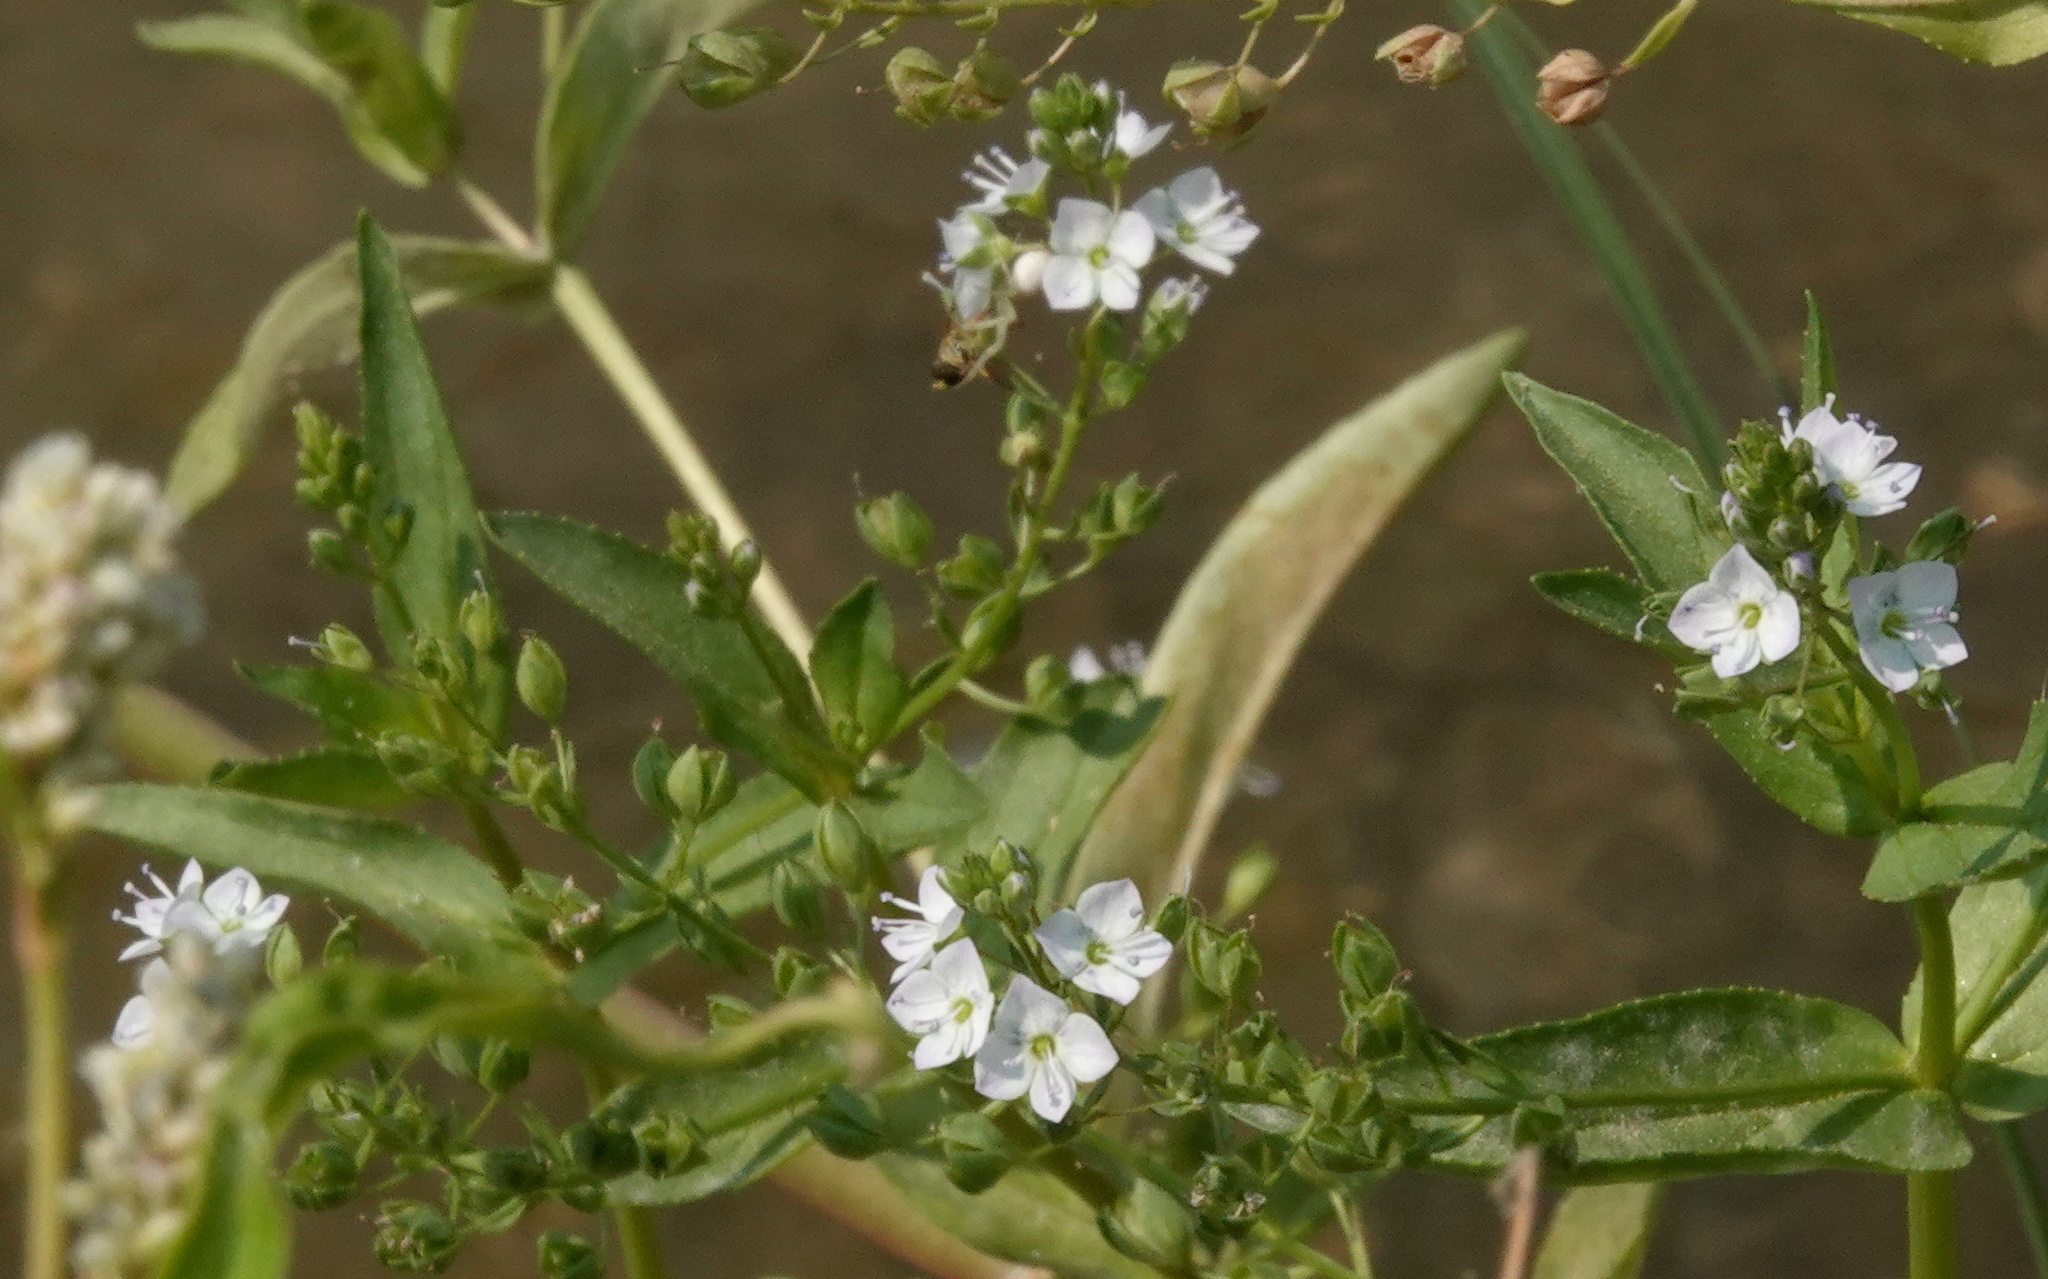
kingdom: Plantae
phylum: Tracheophyta
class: Magnoliopsida
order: Lamiales
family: Plantaginaceae
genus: Veronica
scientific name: Veronica anagallis-aquatica
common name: Water speedwell
